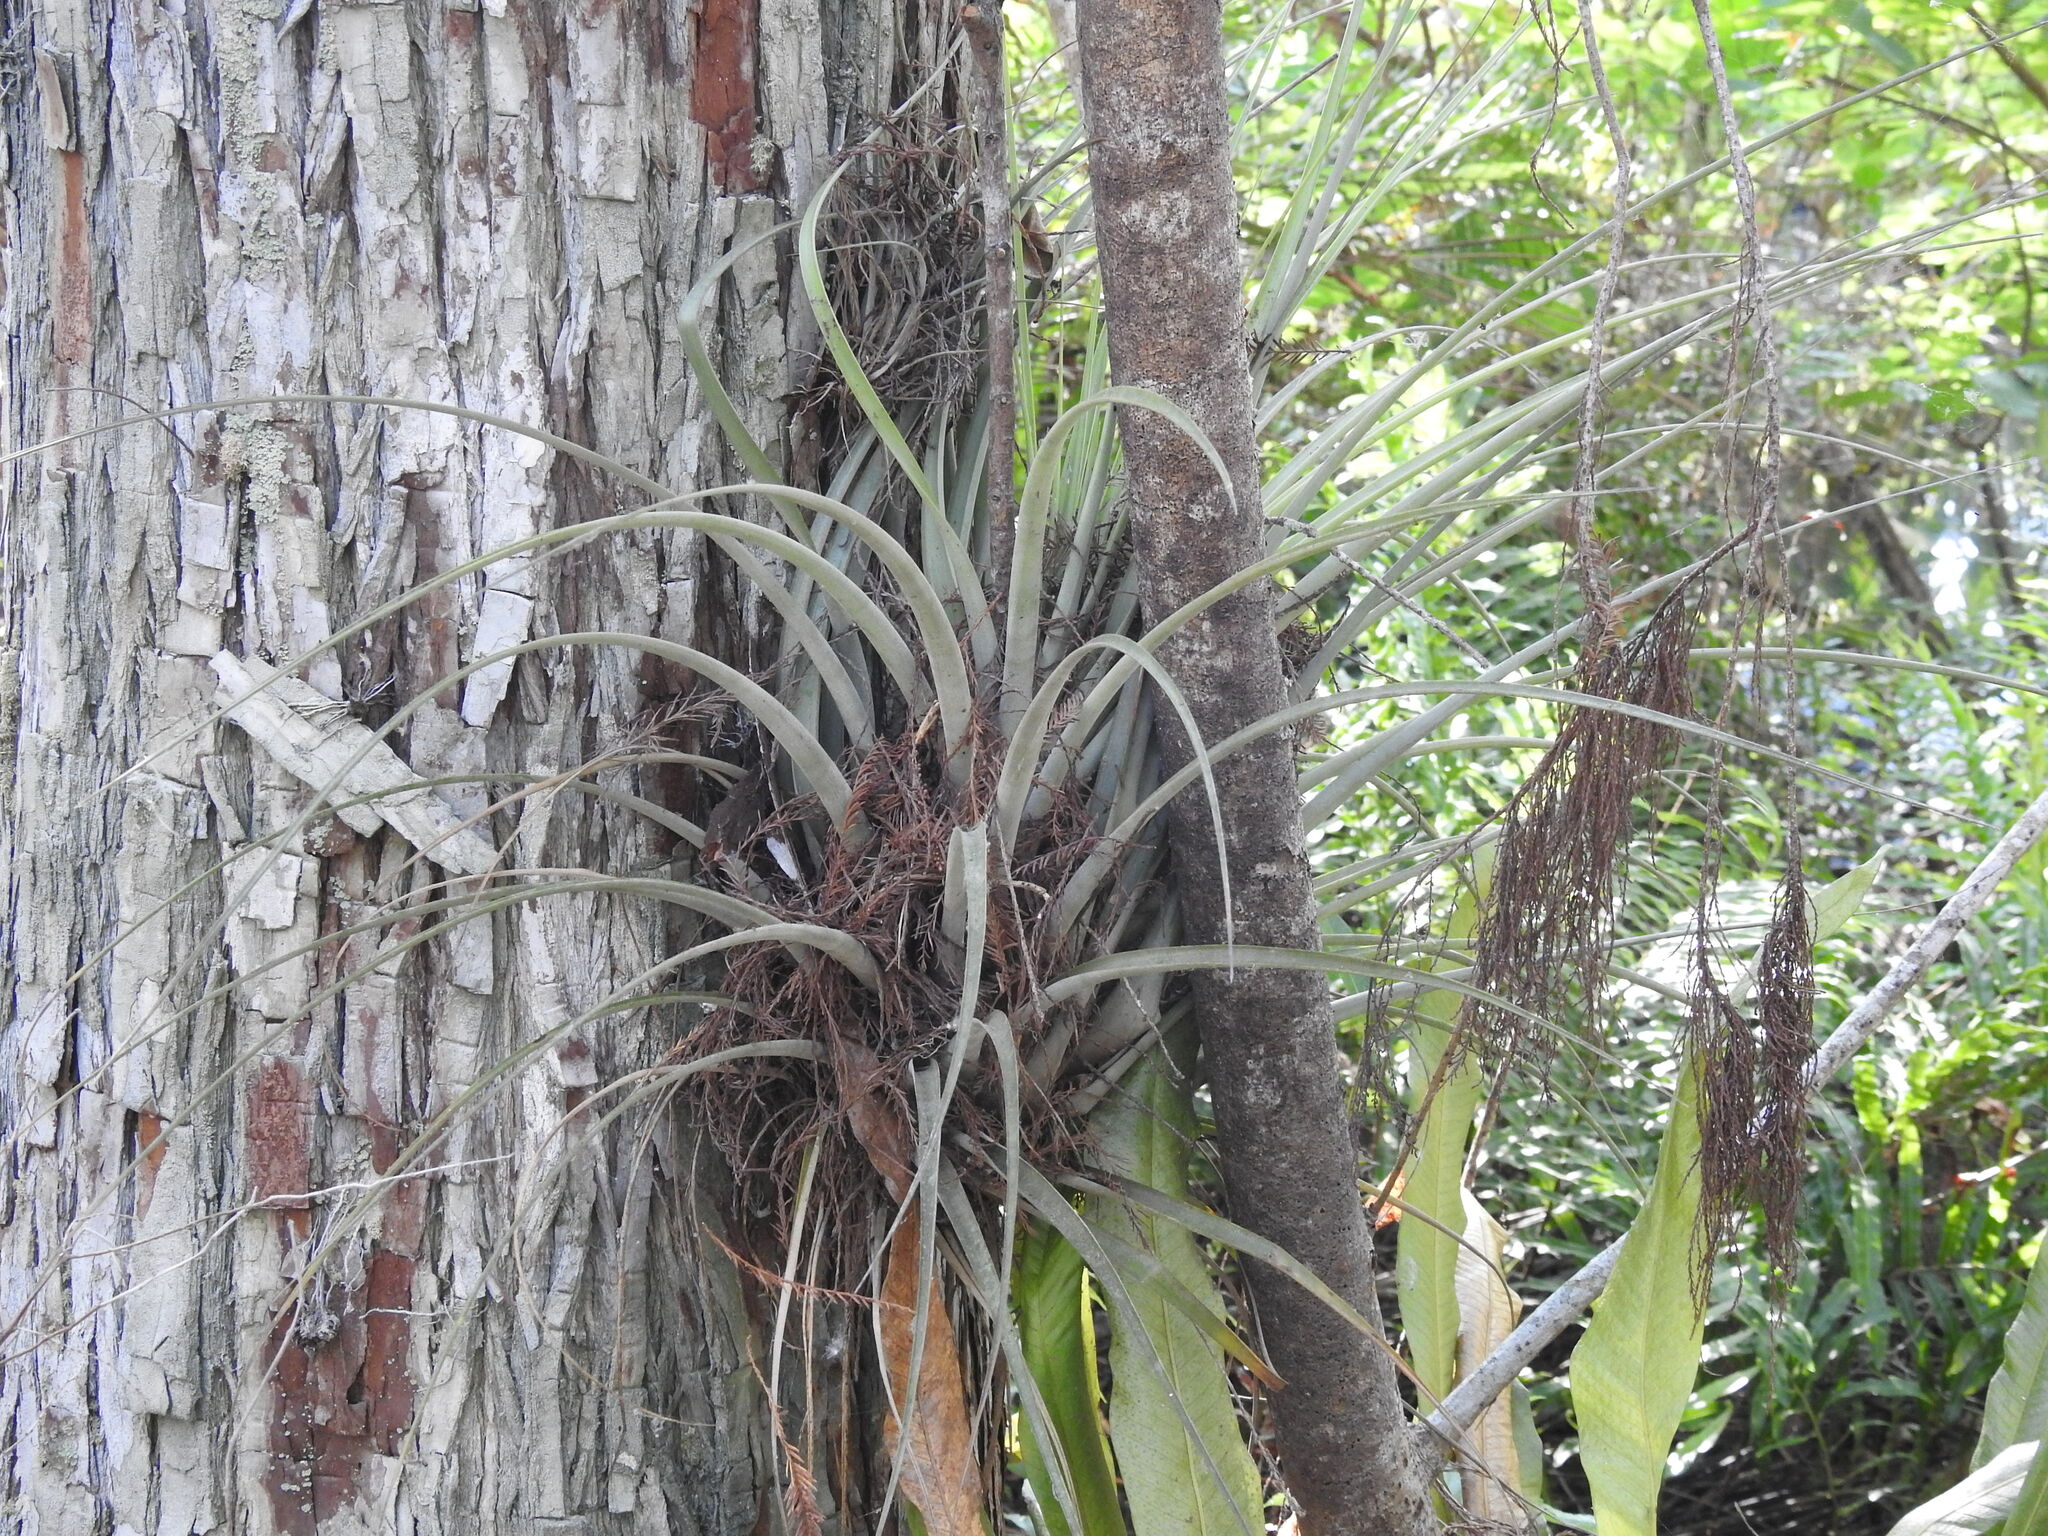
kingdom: Plantae
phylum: Tracheophyta
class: Liliopsida
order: Poales
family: Bromeliaceae
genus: Tillandsia
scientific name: Tillandsia fasciculata
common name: Giant airplant
